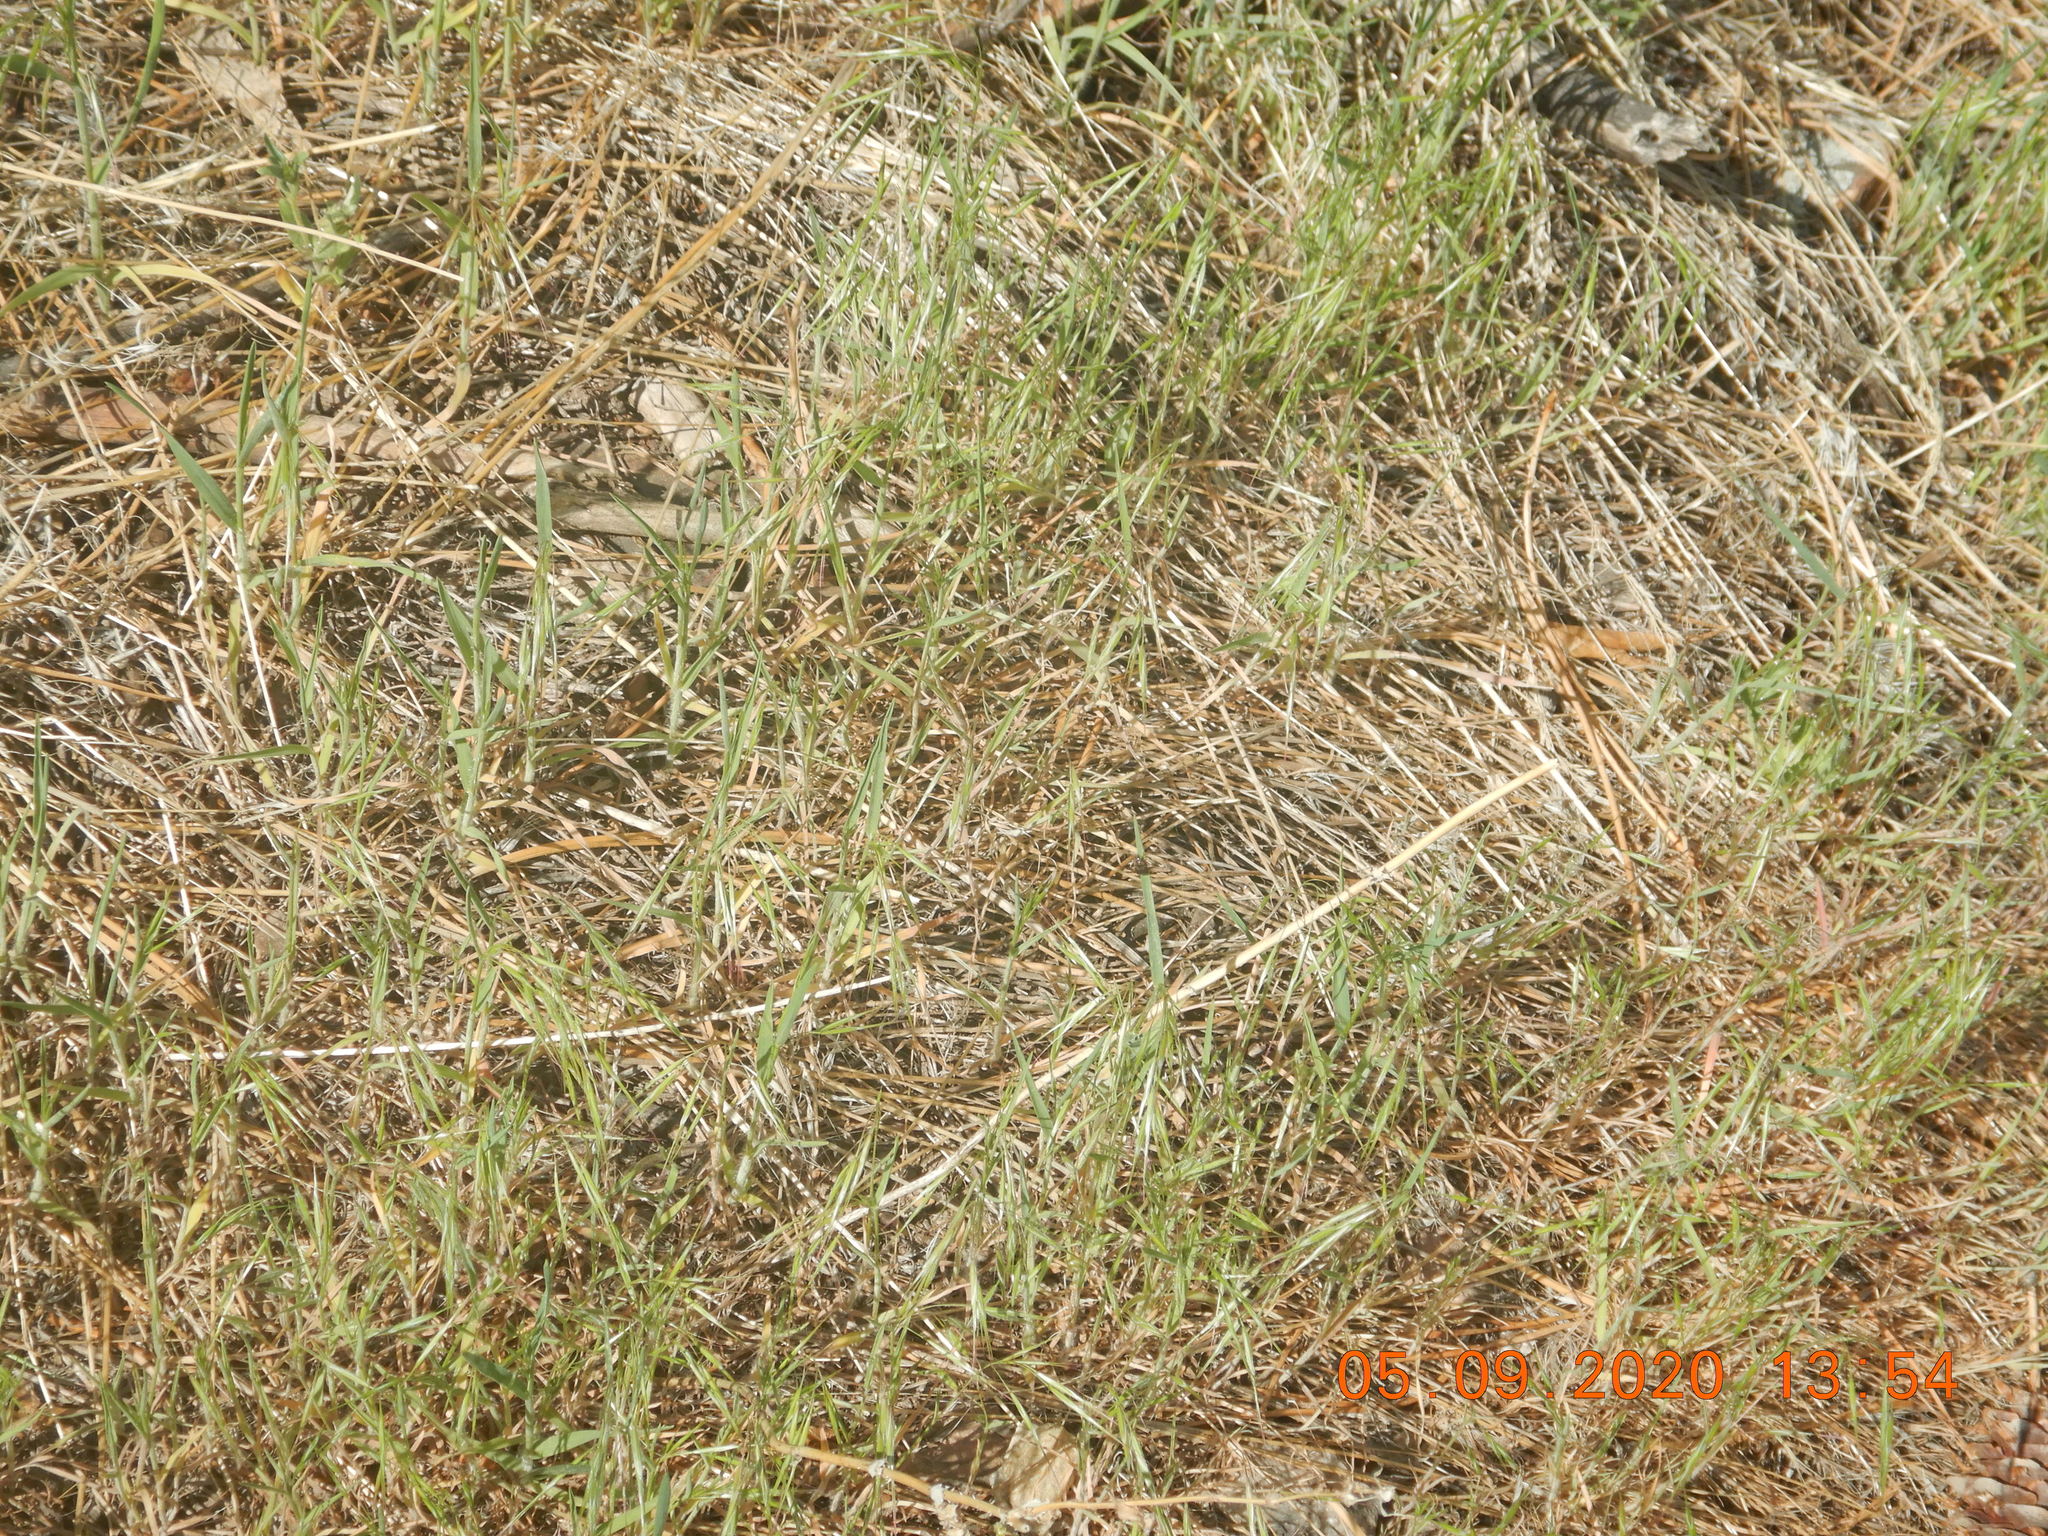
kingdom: Plantae
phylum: Tracheophyta
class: Liliopsida
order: Poales
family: Poaceae
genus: Bromus
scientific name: Bromus tectorum
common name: Cheatgrass
